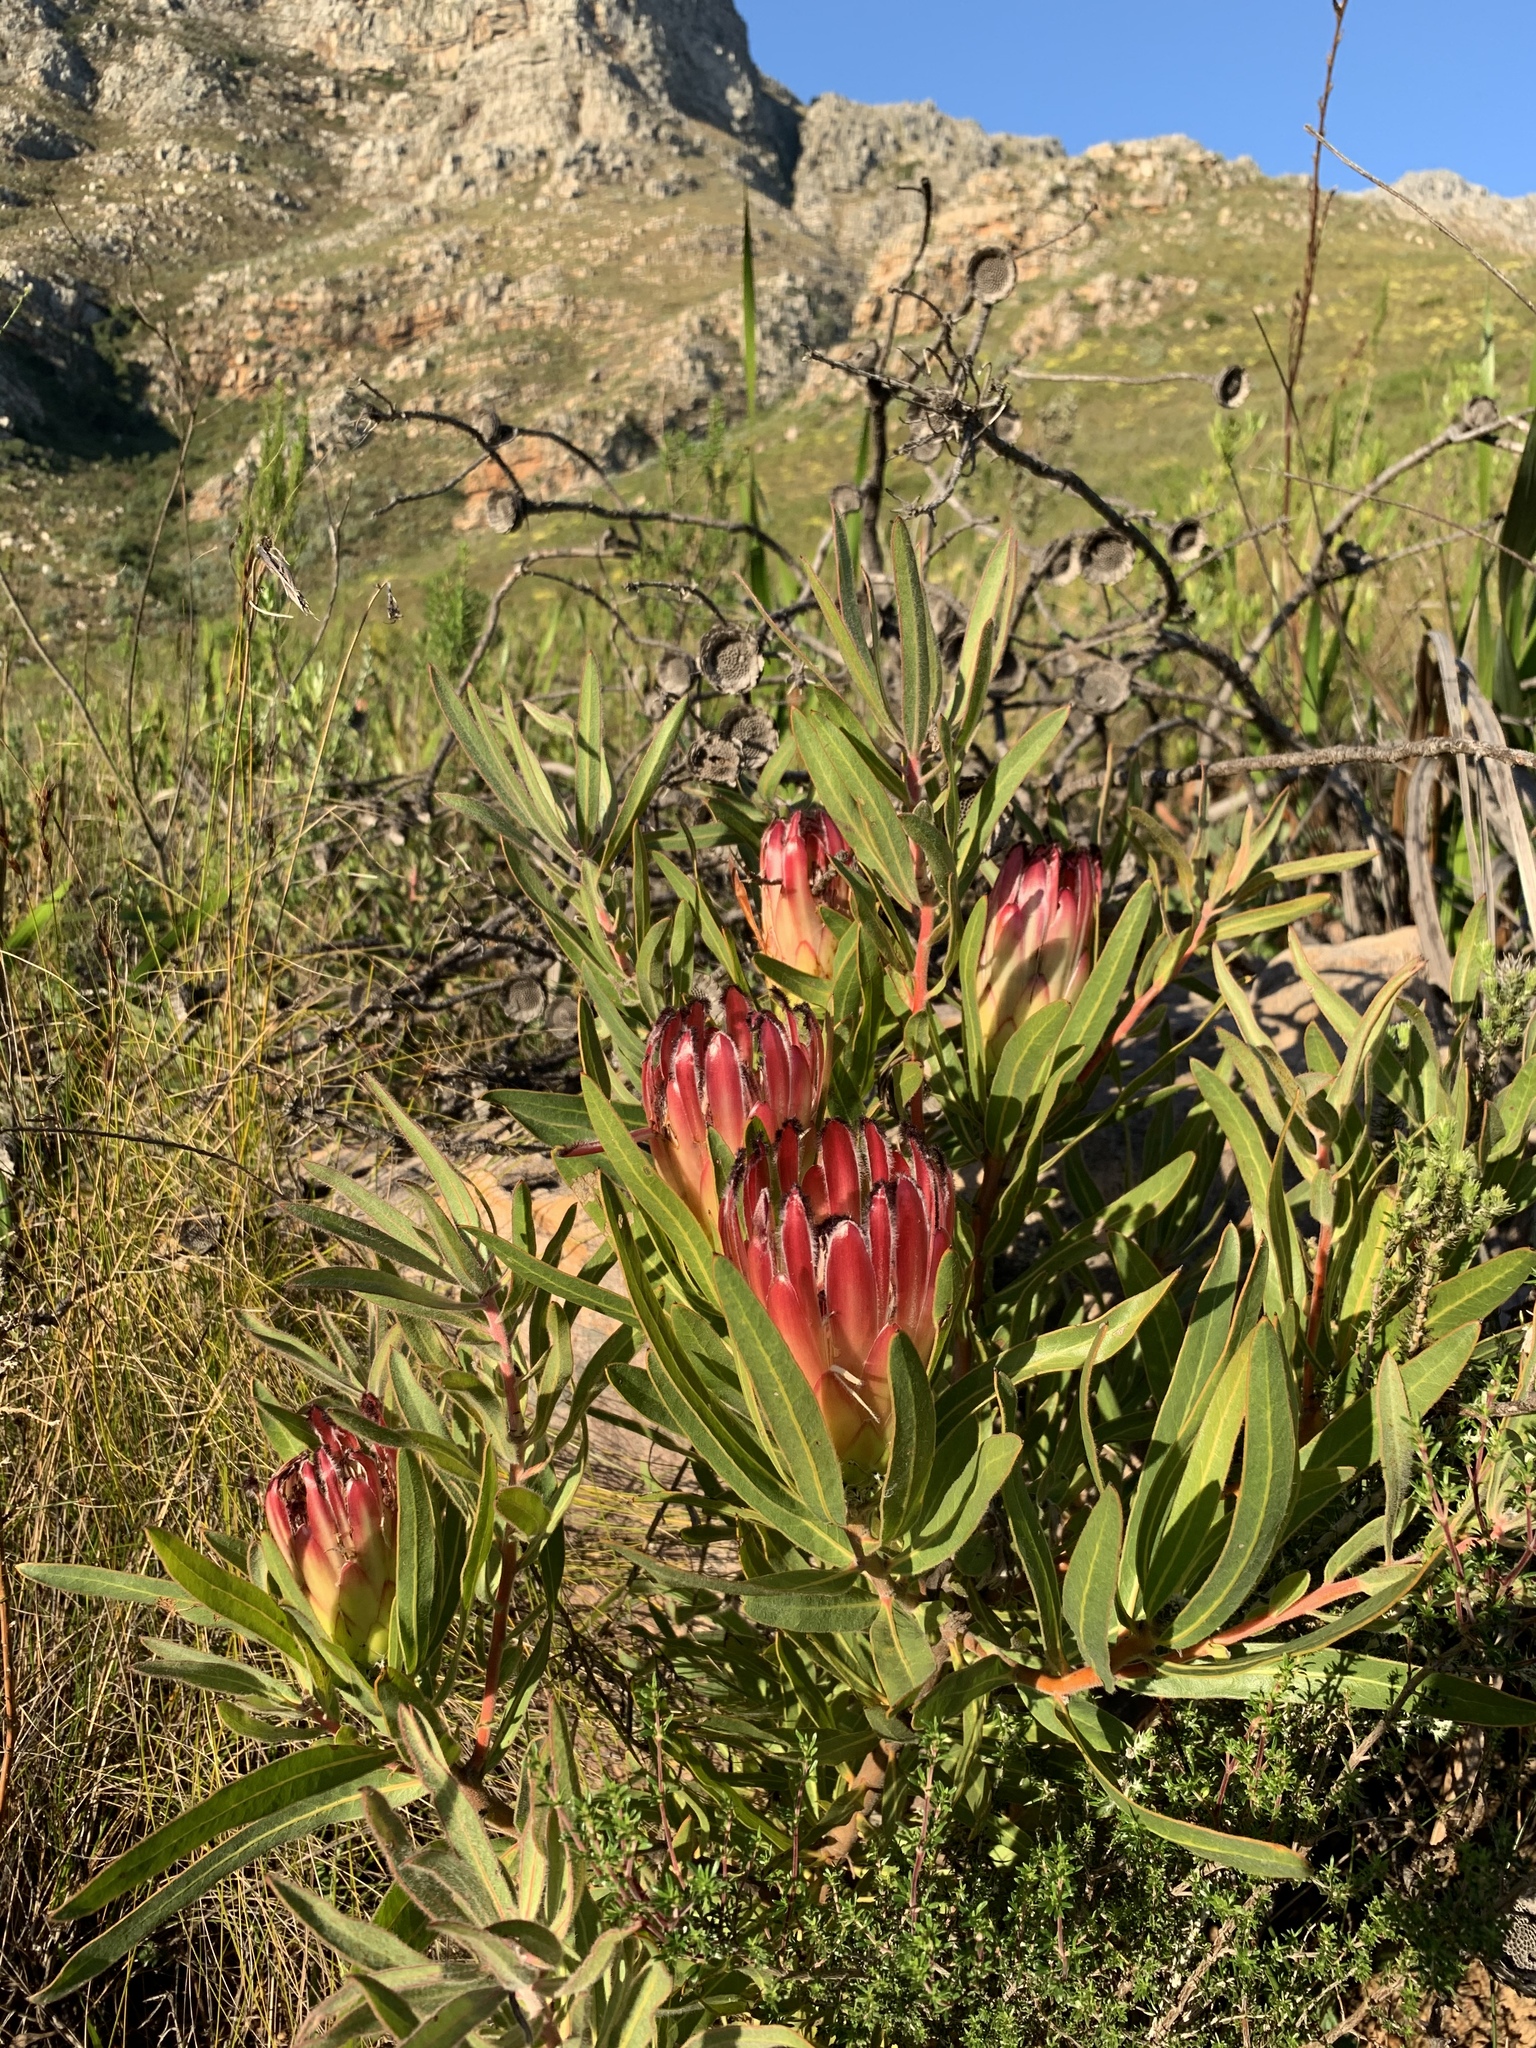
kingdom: Plantae
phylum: Tracheophyta
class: Magnoliopsida
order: Proteales
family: Proteaceae
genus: Protea
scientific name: Protea burchellii
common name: Burchell's sugarbush
